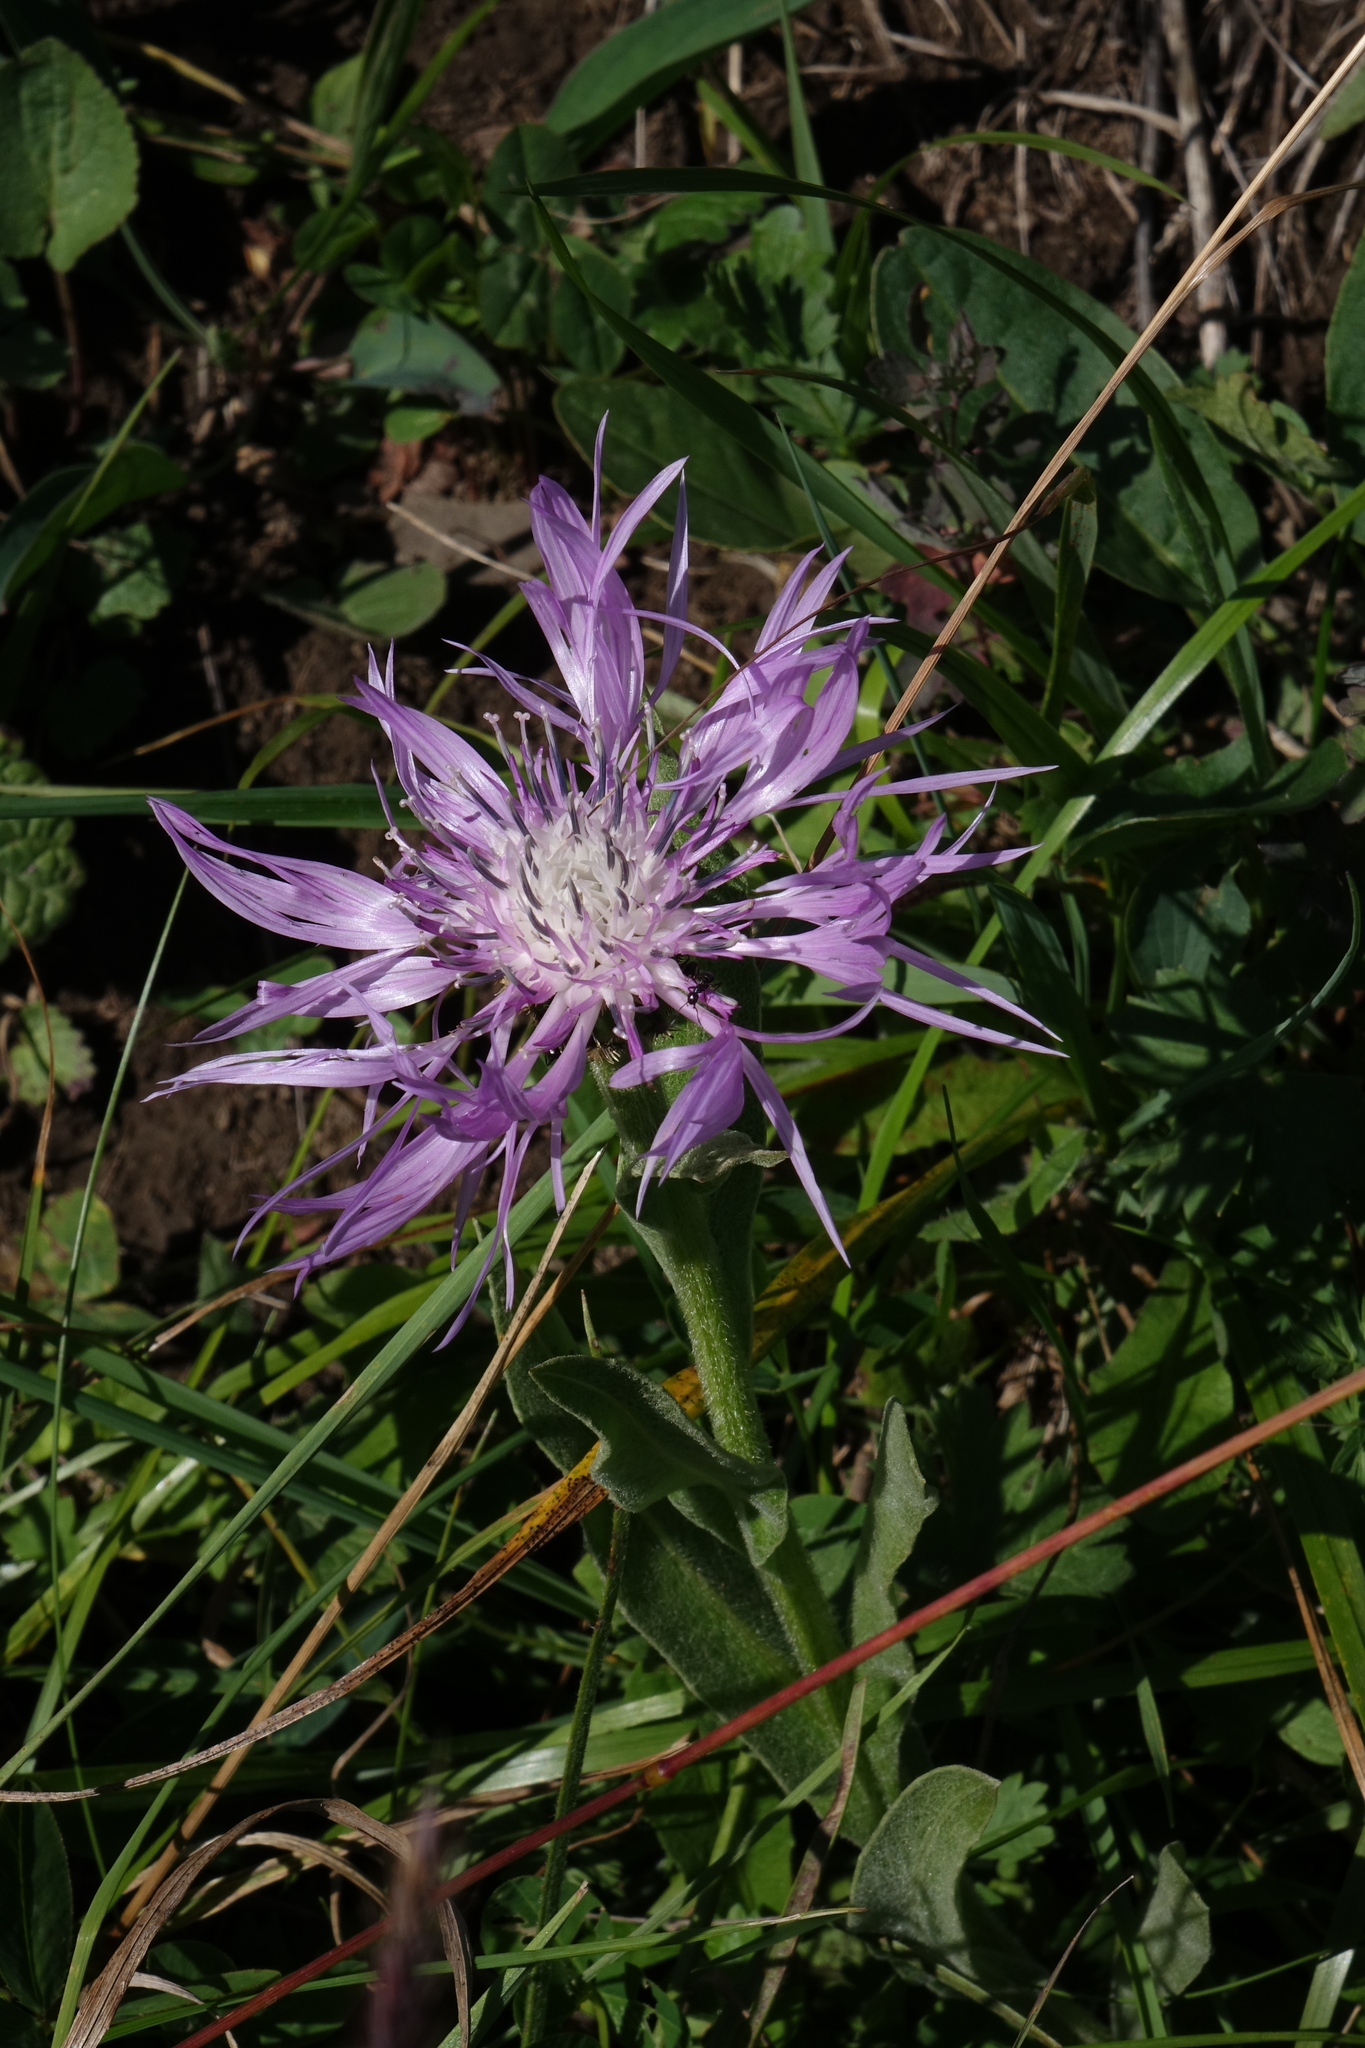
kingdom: Plantae
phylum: Tracheophyta
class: Magnoliopsida
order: Asterales
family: Asteraceae
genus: Centaurea
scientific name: Centaurea cheiranthifolia
